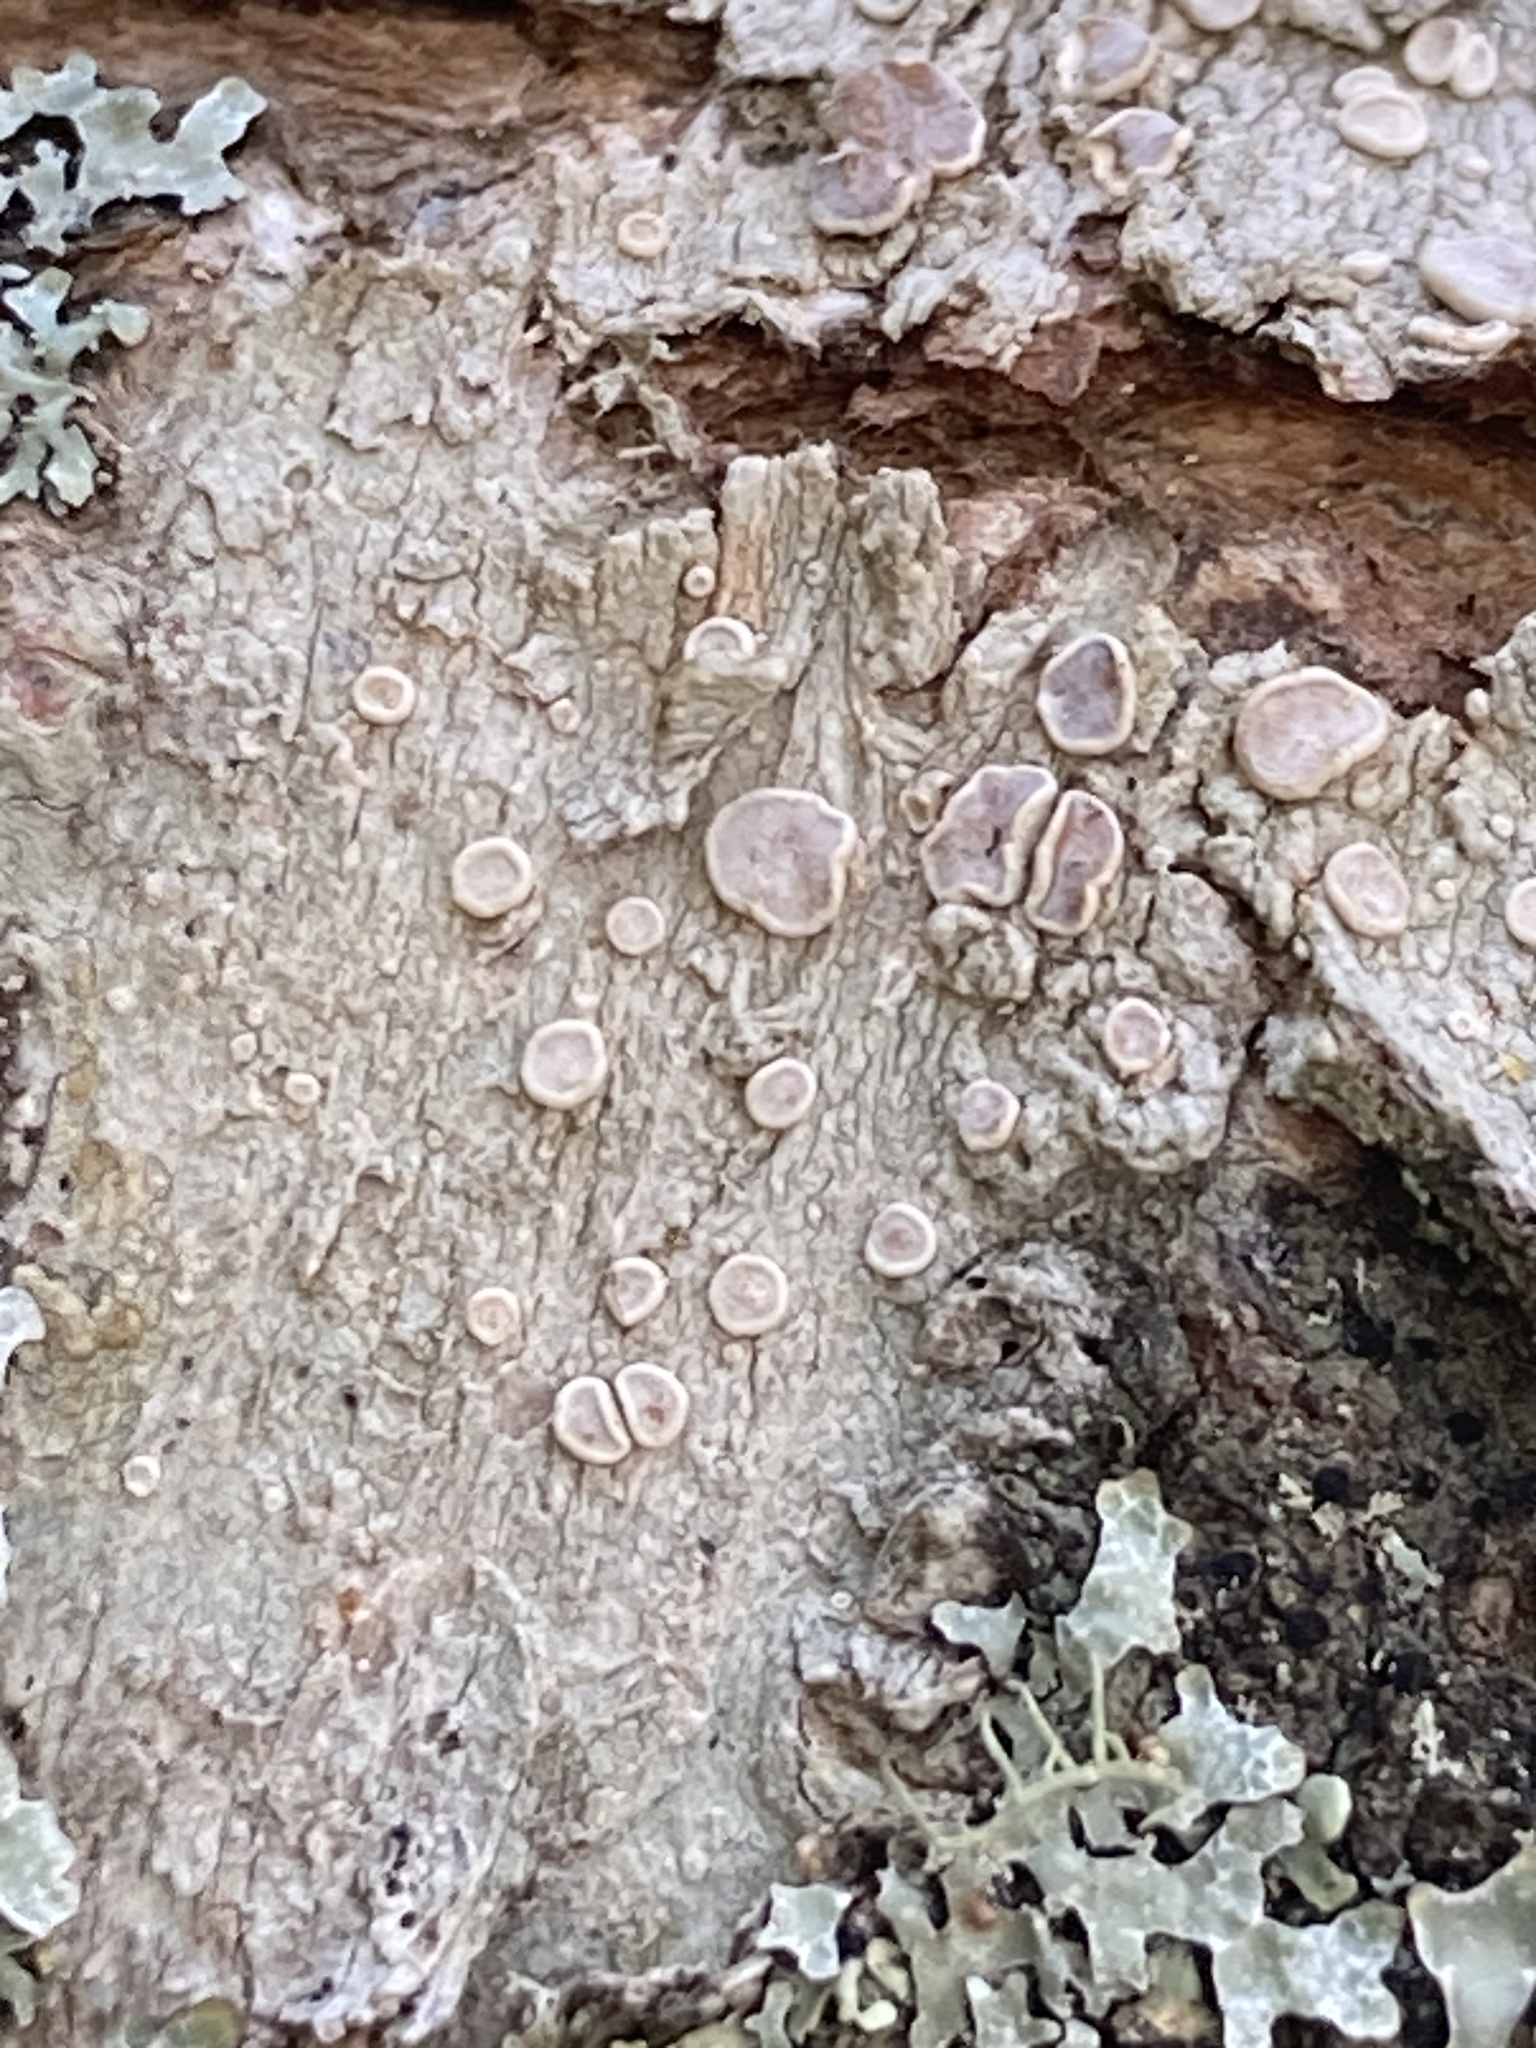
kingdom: Fungi
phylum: Ascomycota
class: Lecanoromycetes
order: Lecanorales
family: Lecanoraceae
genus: Lecanora
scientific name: Lecanora protervula
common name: Lesser dust my discs
